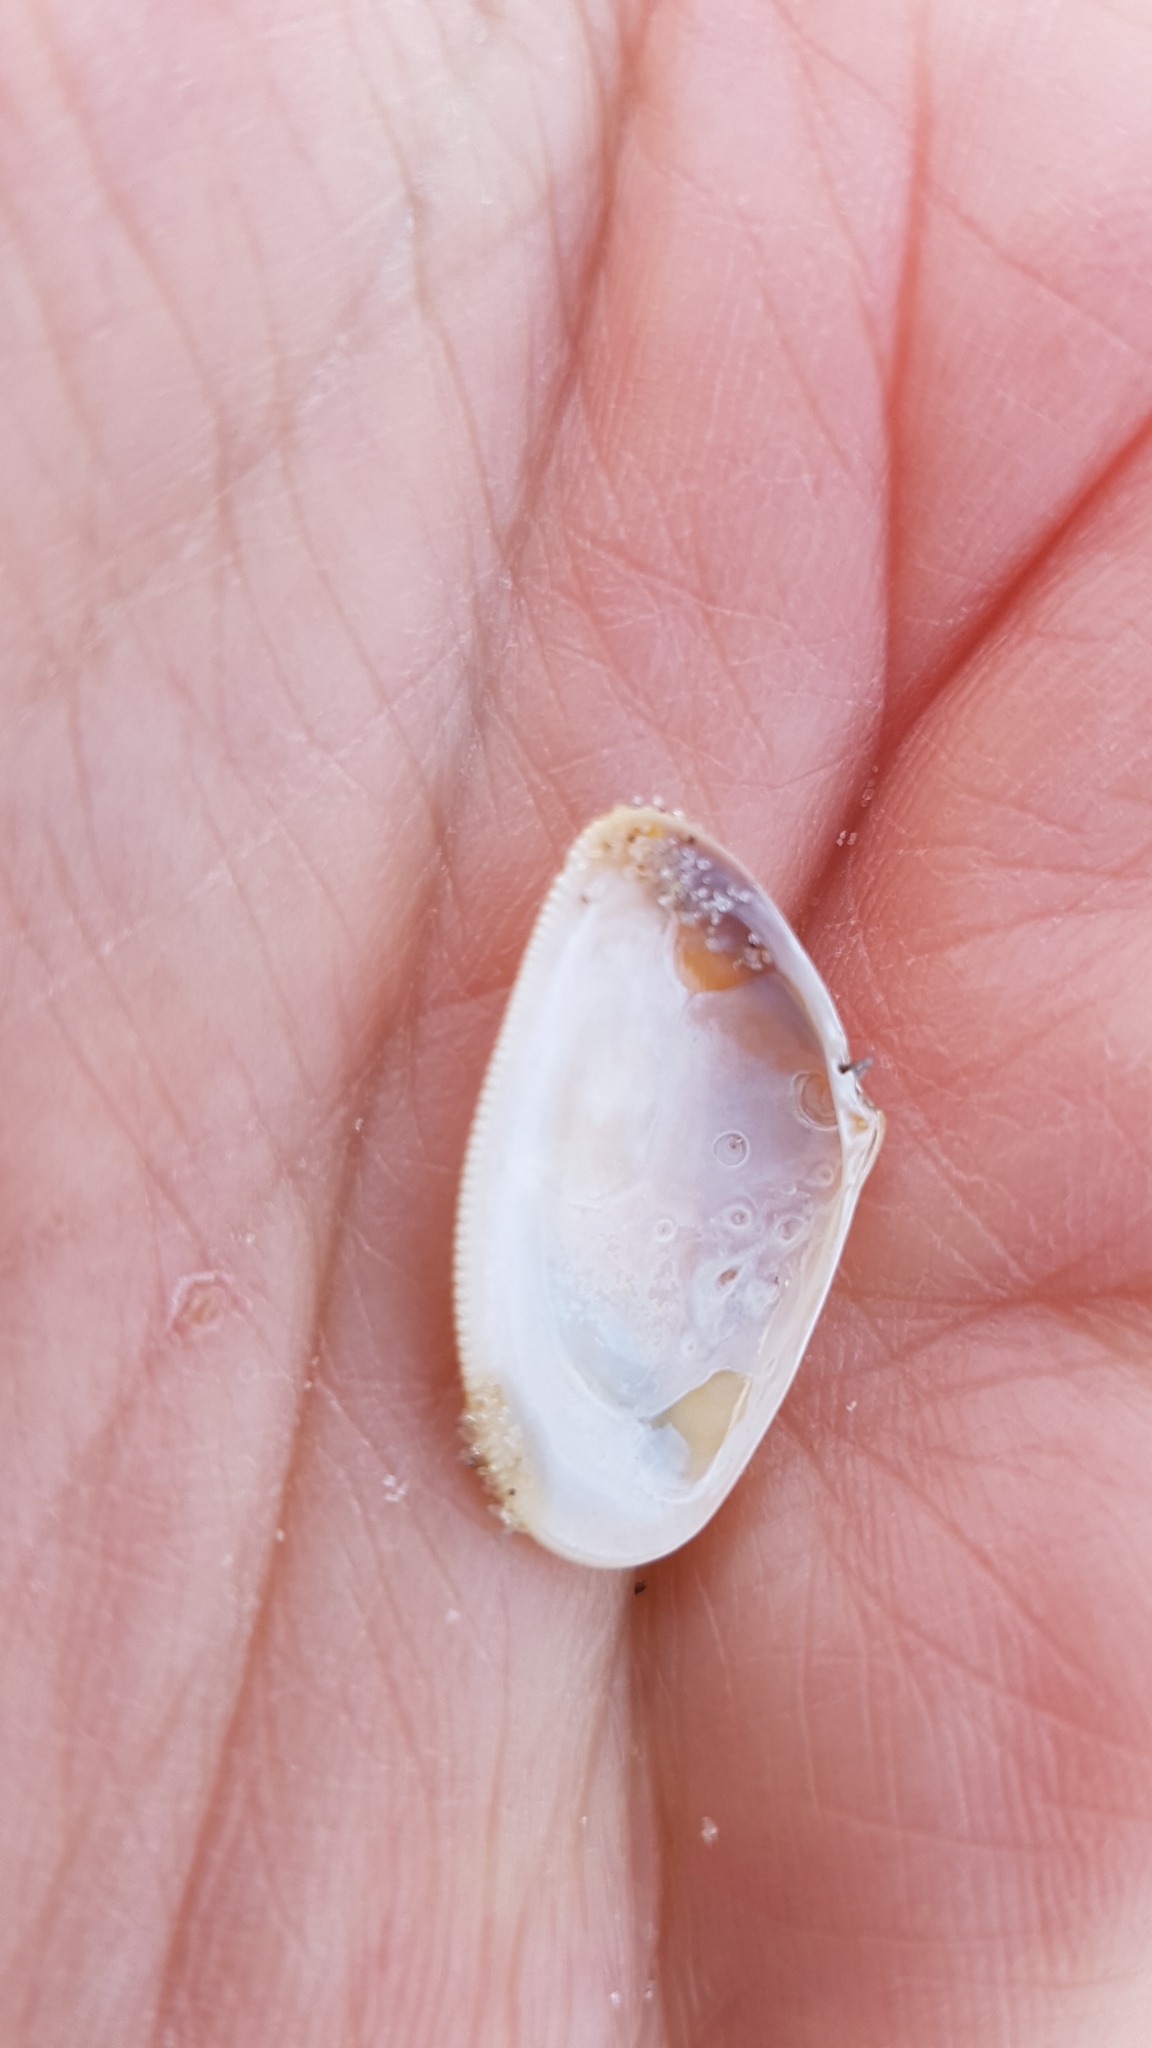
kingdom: Animalia
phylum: Mollusca
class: Bivalvia
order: Cardiida
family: Donacidae
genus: Donax
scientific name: Donax vittatus
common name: Banded wedge-shell
